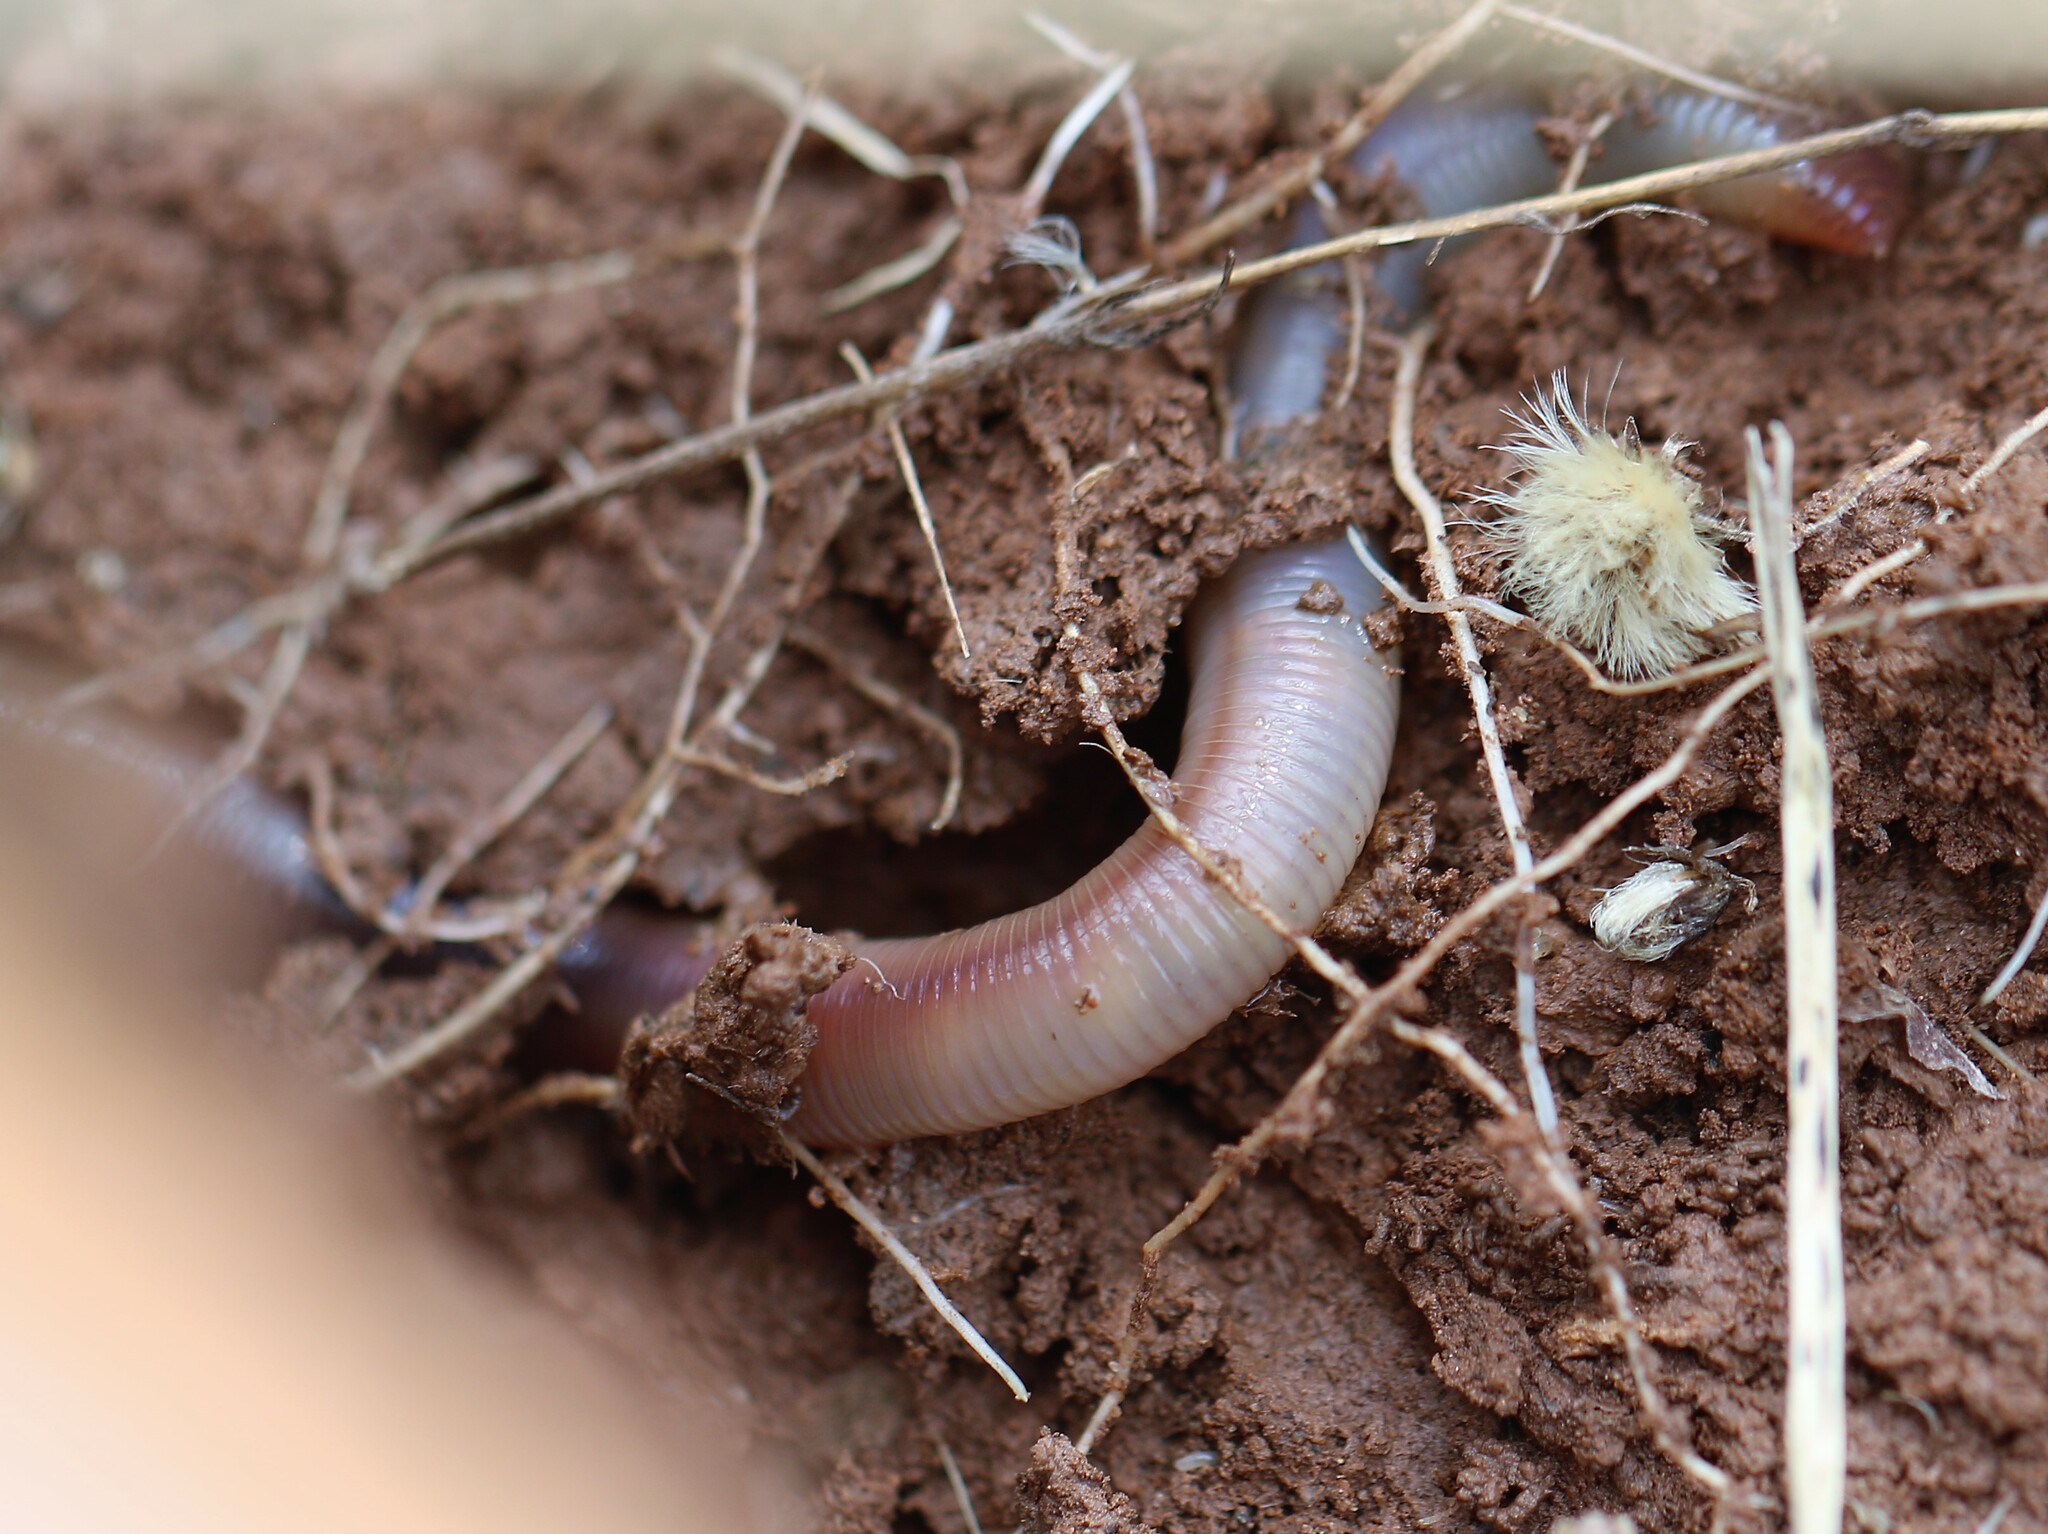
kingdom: Animalia
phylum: Annelida
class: Clitellata
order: Crassiclitellata
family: Lumbricidae
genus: Lumbricus
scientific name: Lumbricus terrestris
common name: Common earthworm
